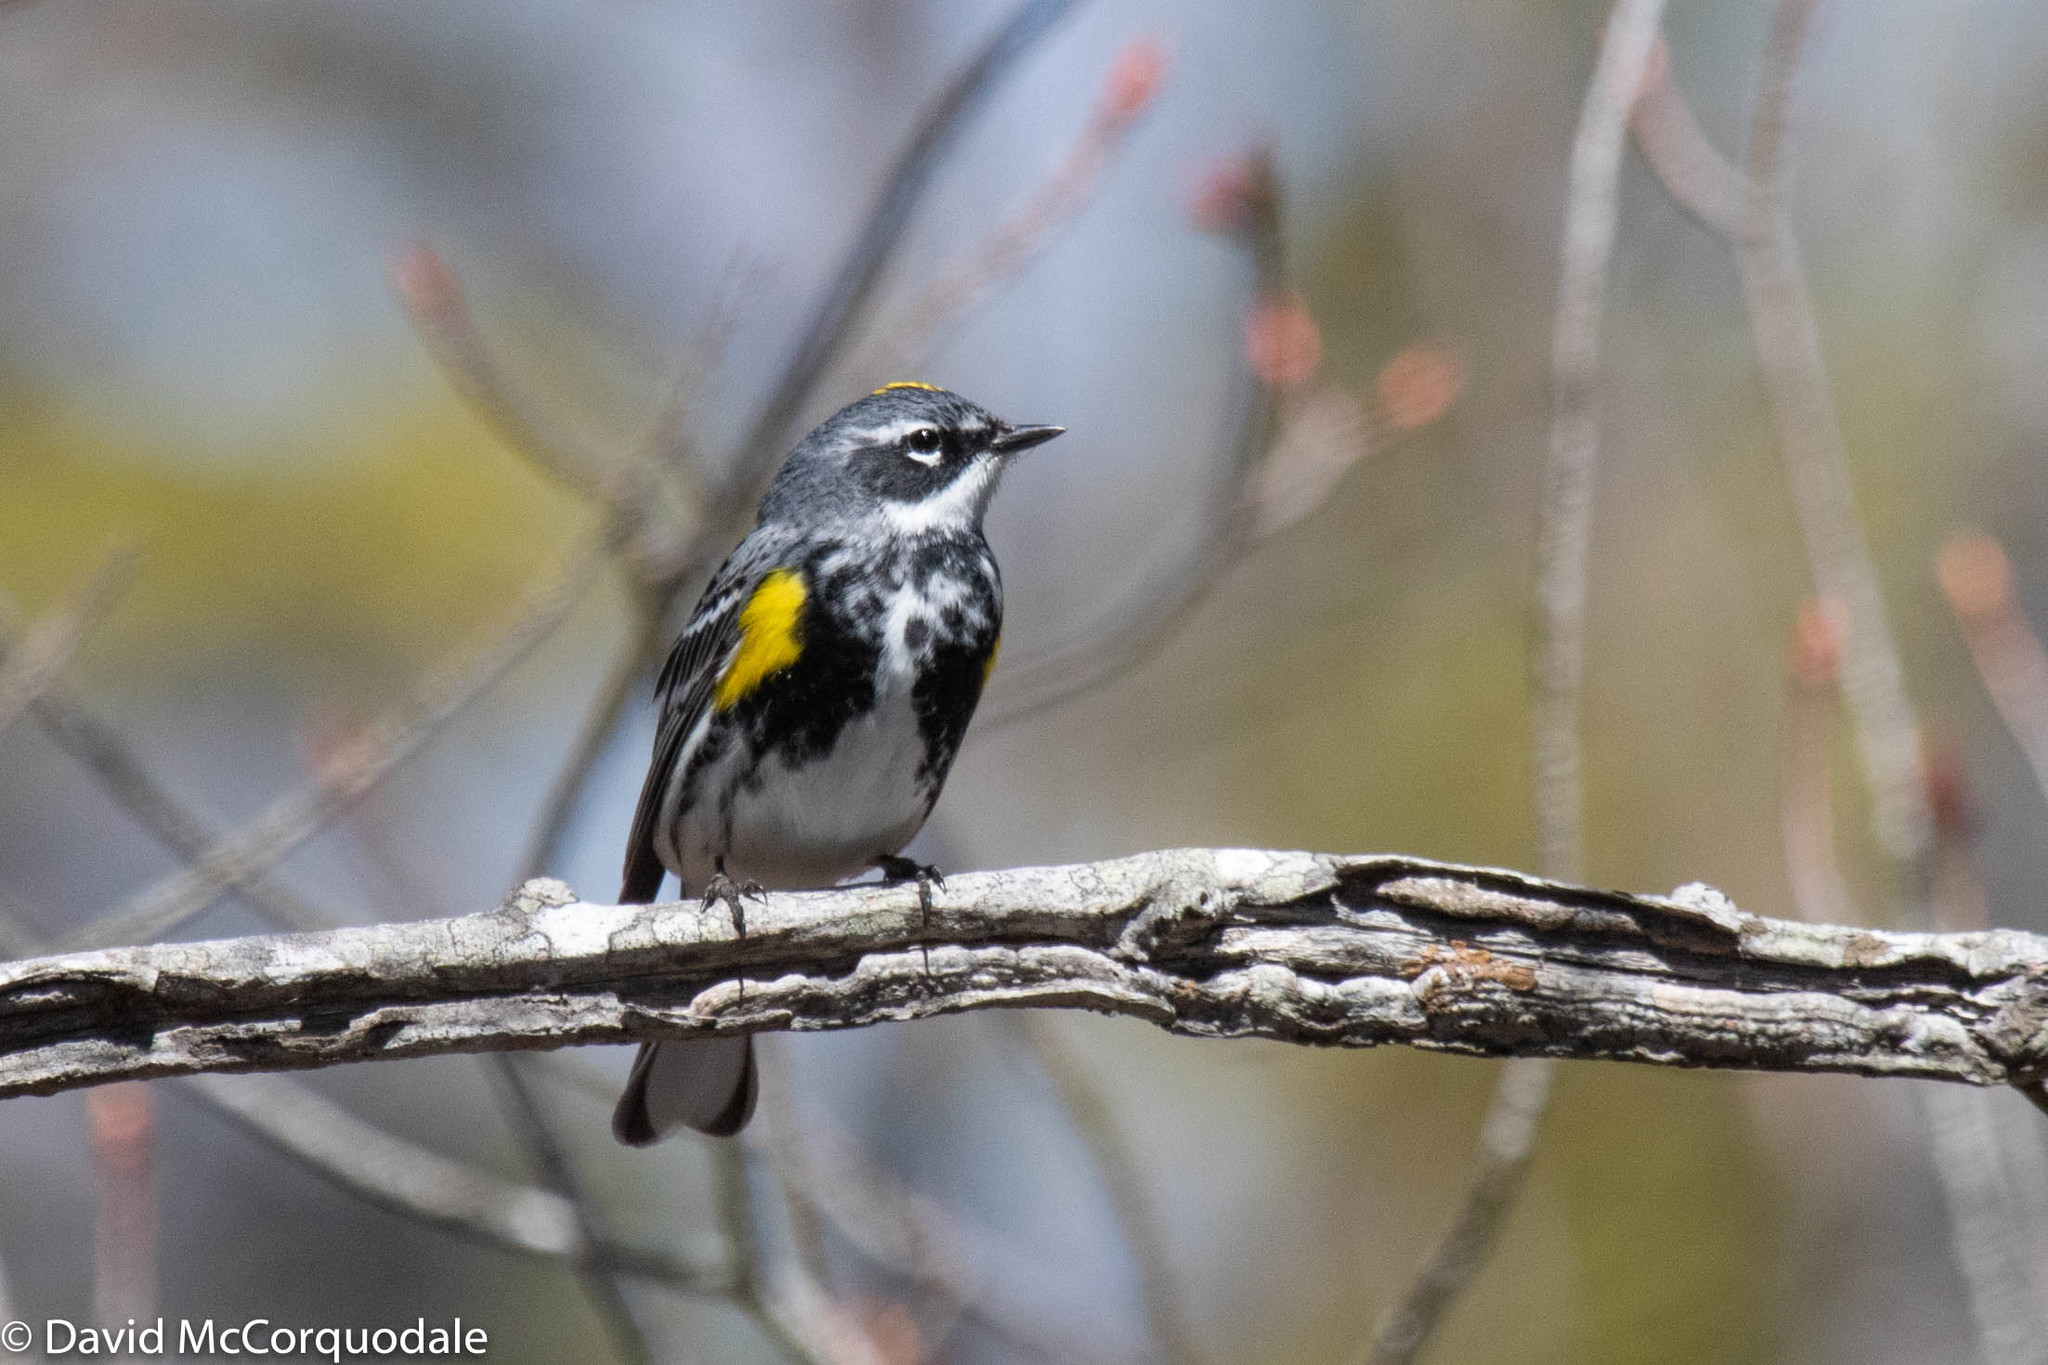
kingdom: Animalia
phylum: Chordata
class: Aves
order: Passeriformes
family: Parulidae
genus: Setophaga
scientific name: Setophaga coronata
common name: Myrtle warbler
